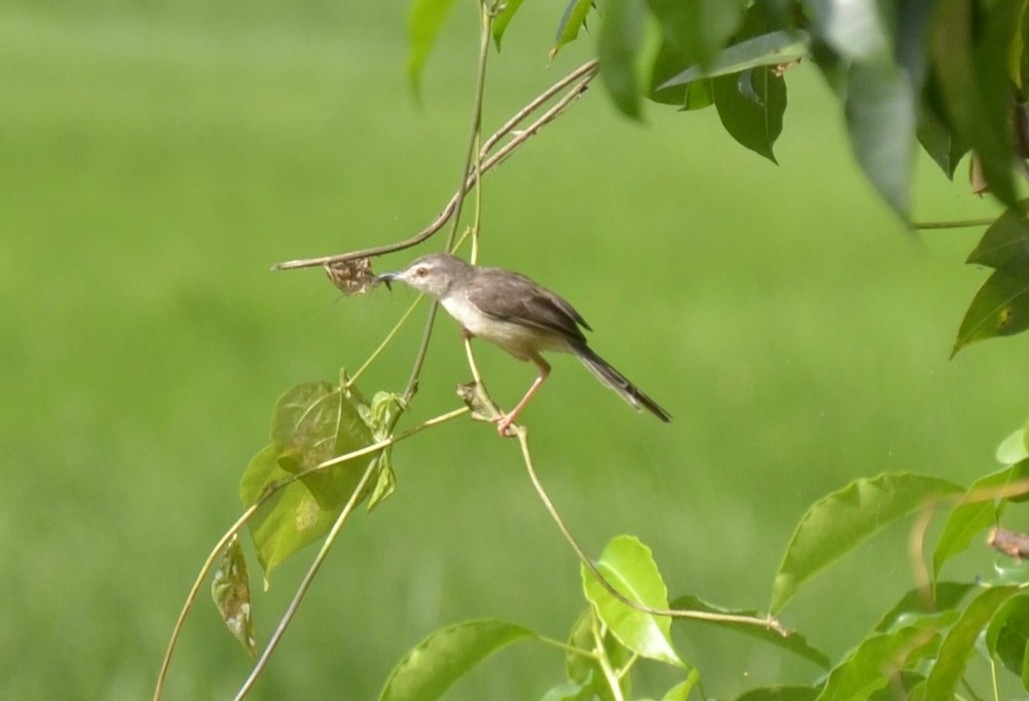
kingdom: Animalia
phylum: Chordata
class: Aves
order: Passeriformes
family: Cisticolidae
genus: Prinia
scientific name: Prinia inornata
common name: Plain prinia
